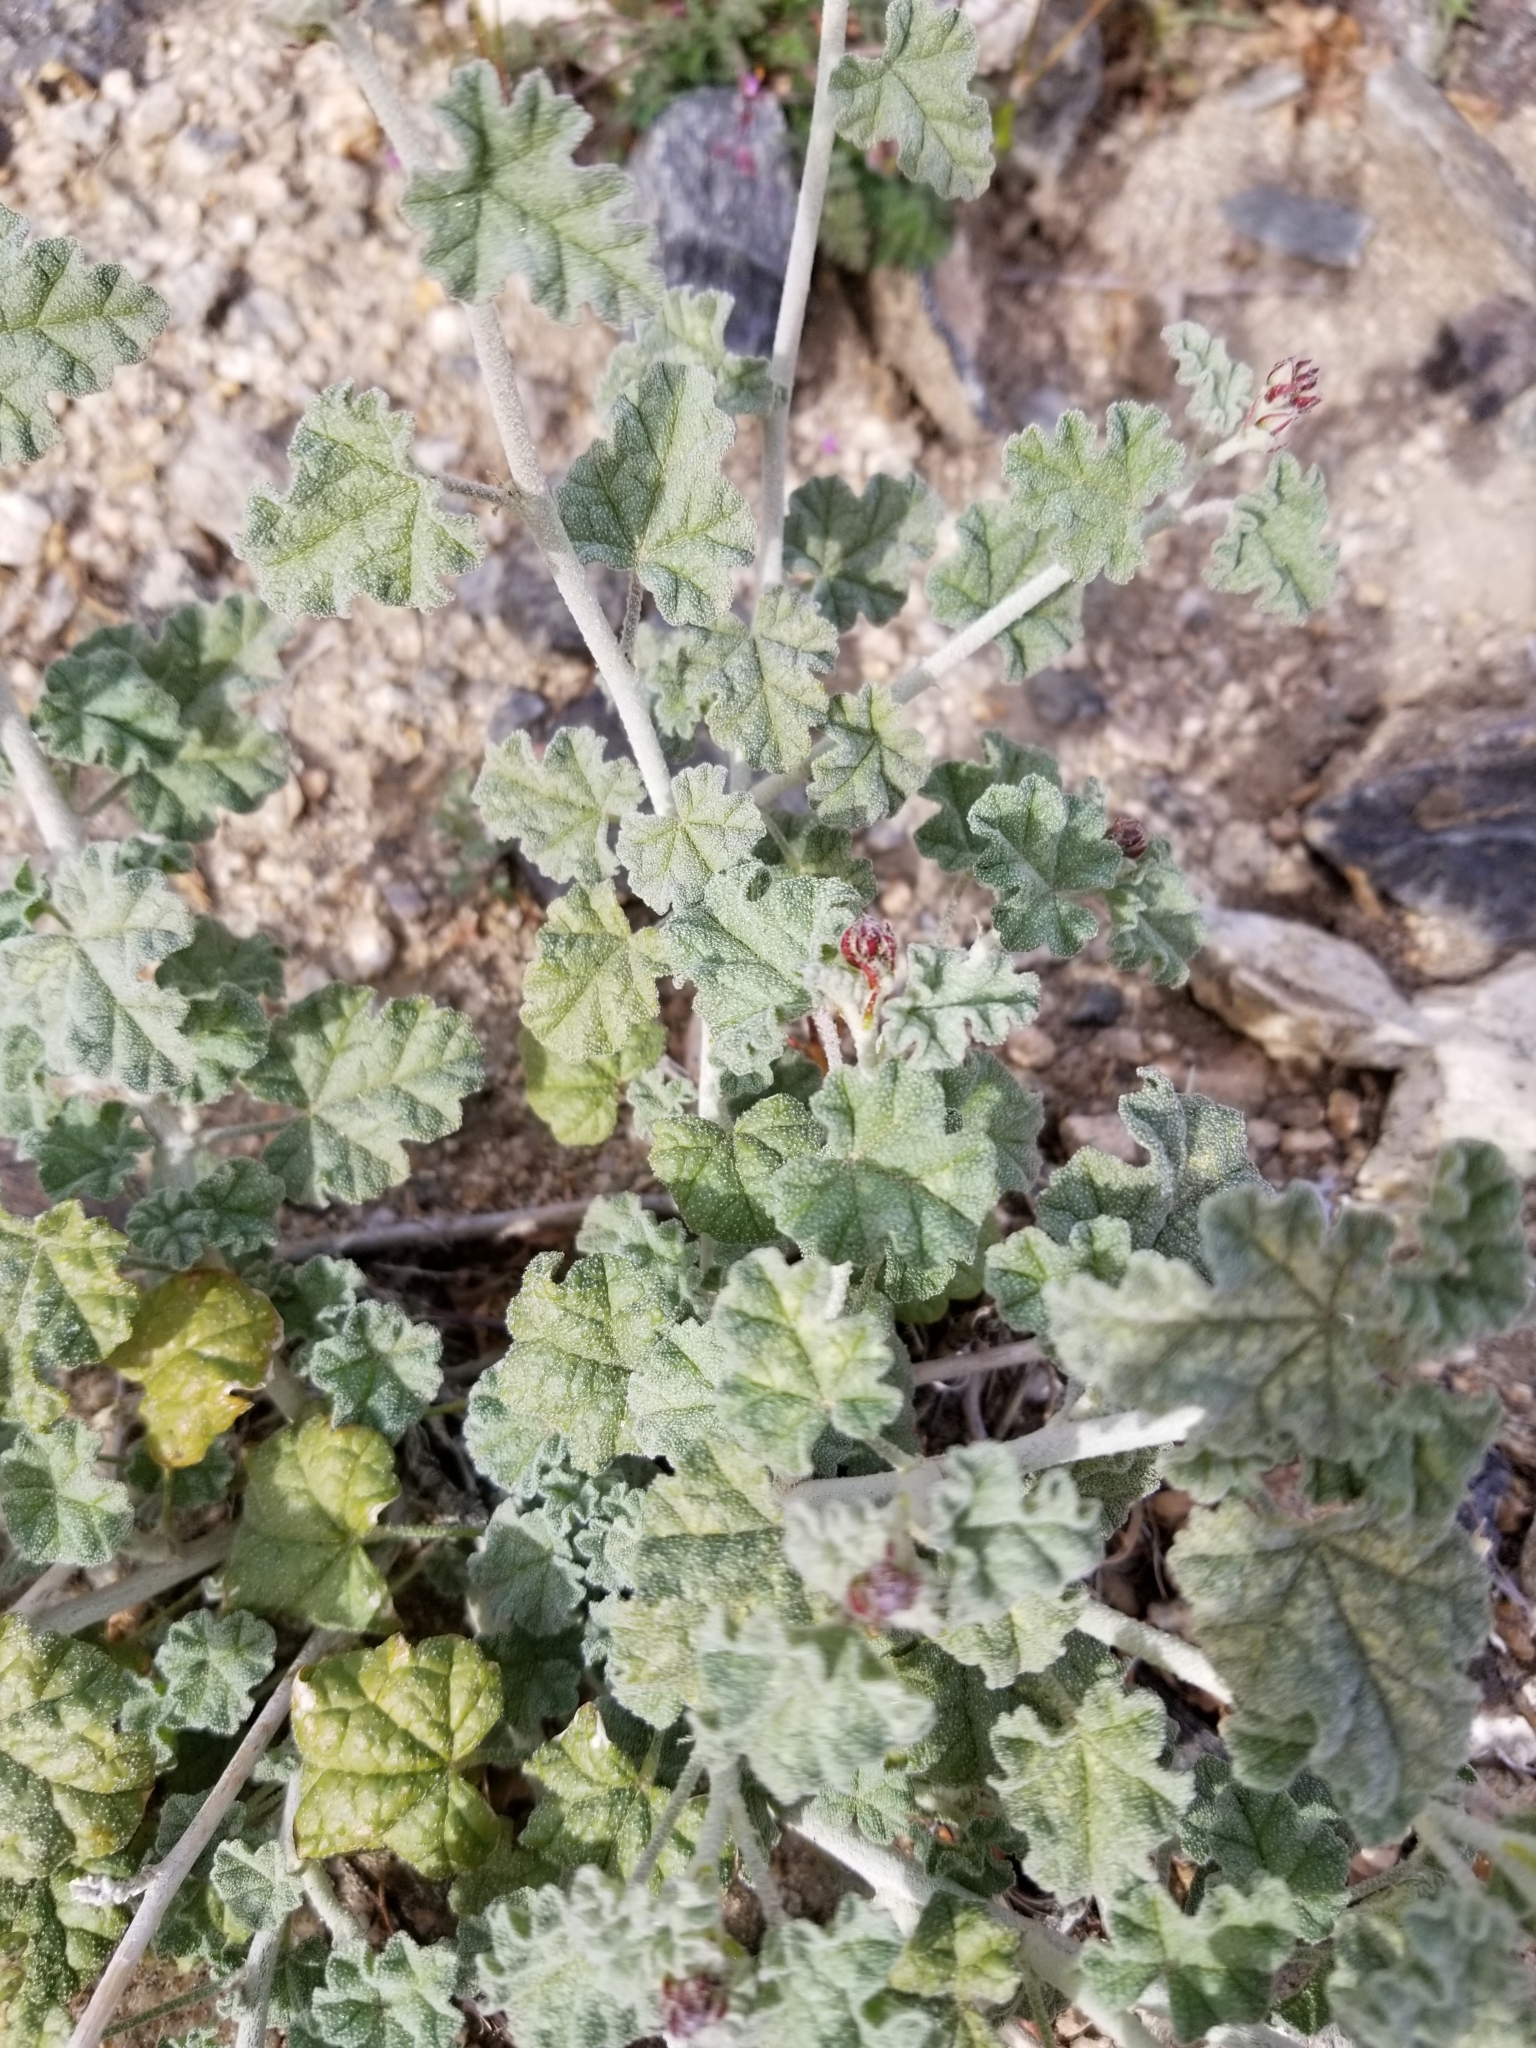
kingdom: Plantae
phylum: Tracheophyta
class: Magnoliopsida
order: Malvales
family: Malvaceae
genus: Sphaeralcea
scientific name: Sphaeralcea ambigua
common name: Apricot globe-mallow
